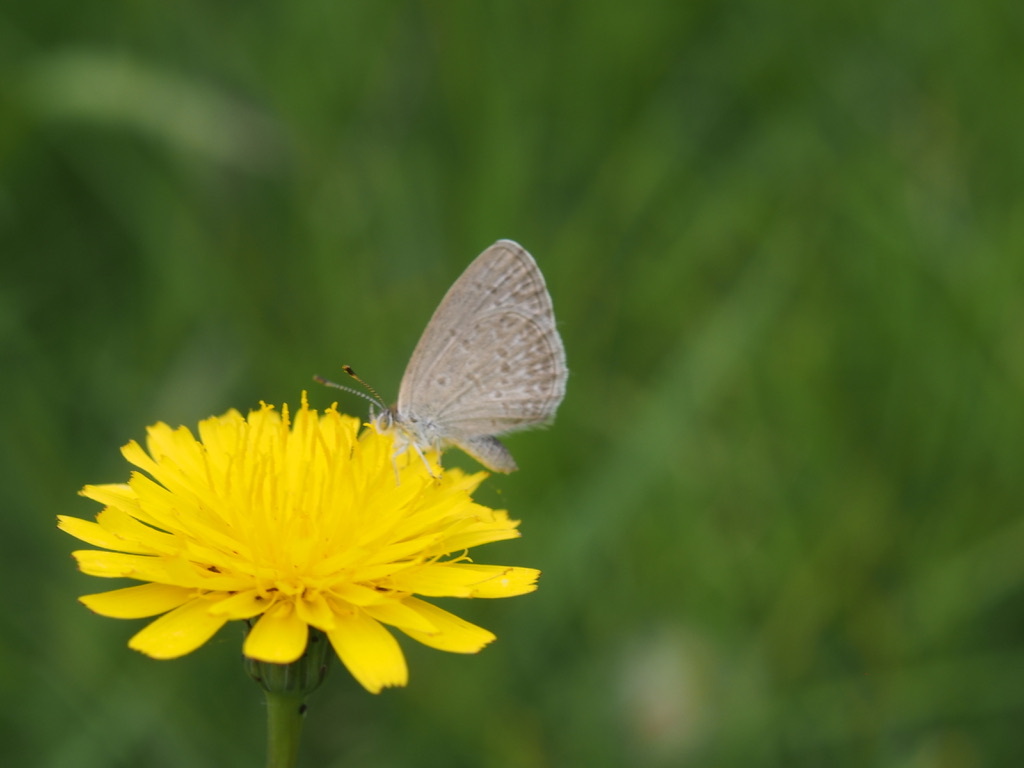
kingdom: Animalia
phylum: Arthropoda
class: Insecta
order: Lepidoptera
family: Lycaenidae
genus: Zizina
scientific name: Zizina otis
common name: Lesser grass blue
